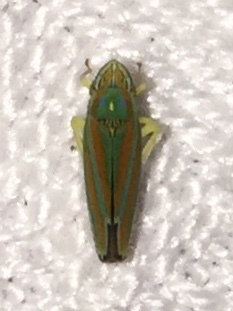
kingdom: Animalia
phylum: Arthropoda
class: Insecta
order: Hemiptera
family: Cicadellidae
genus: Graphocephala
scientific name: Graphocephala versuta
